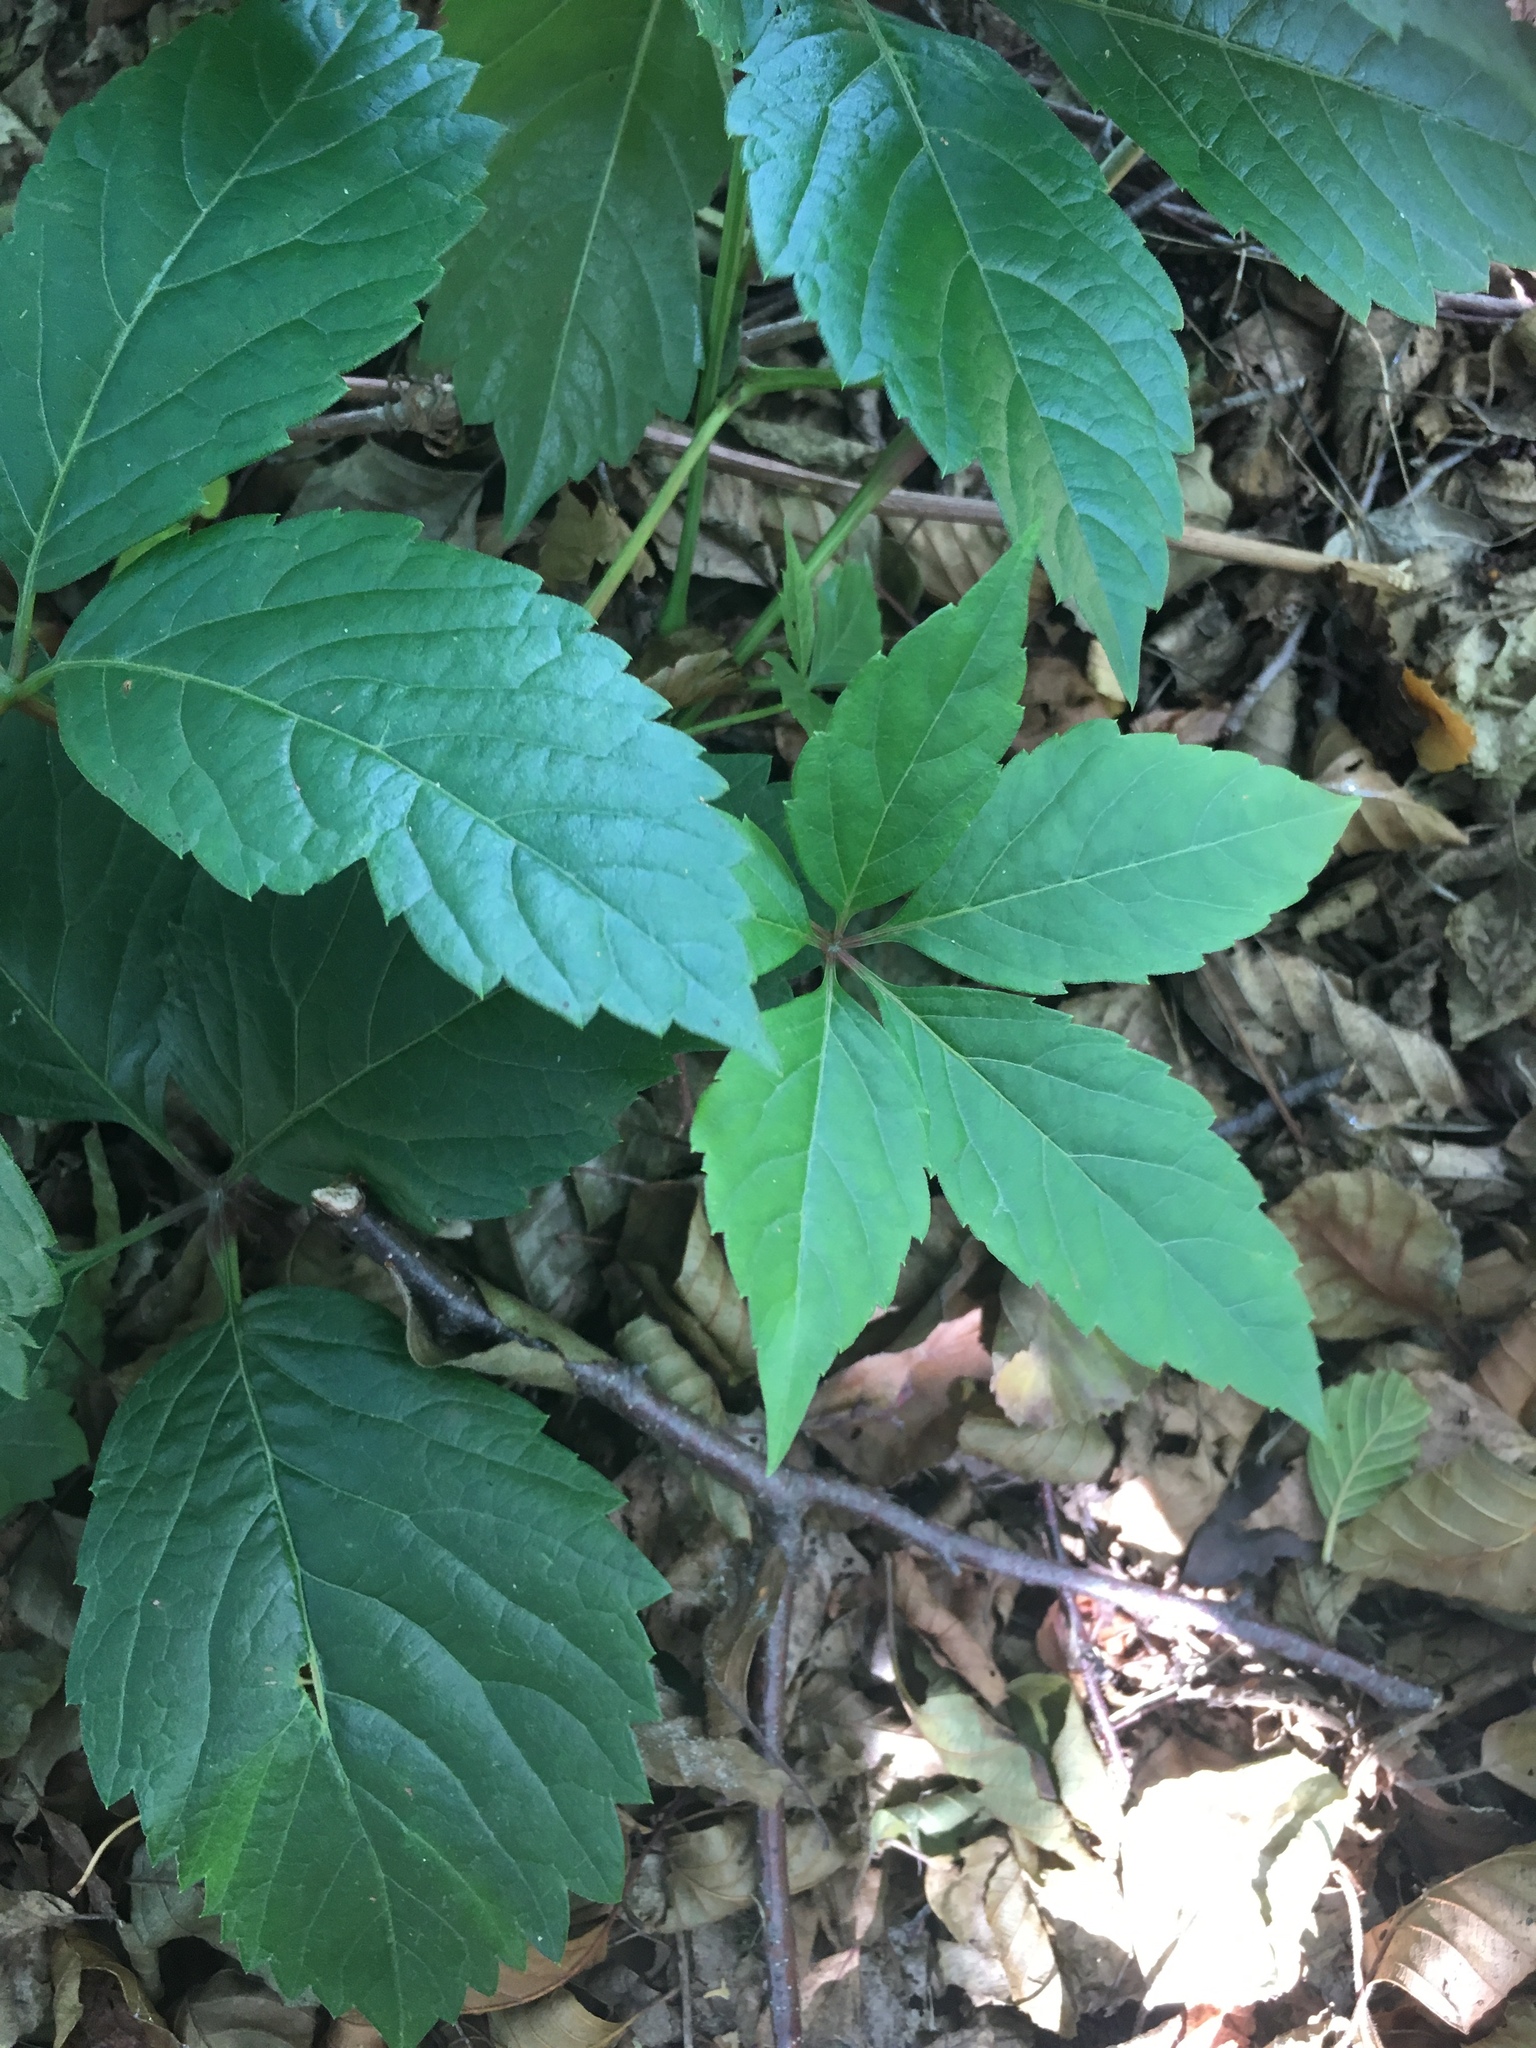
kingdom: Plantae
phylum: Tracheophyta
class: Magnoliopsida
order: Vitales
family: Vitaceae
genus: Parthenocissus
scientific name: Parthenocissus quinquefolia
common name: Virginia-creeper
